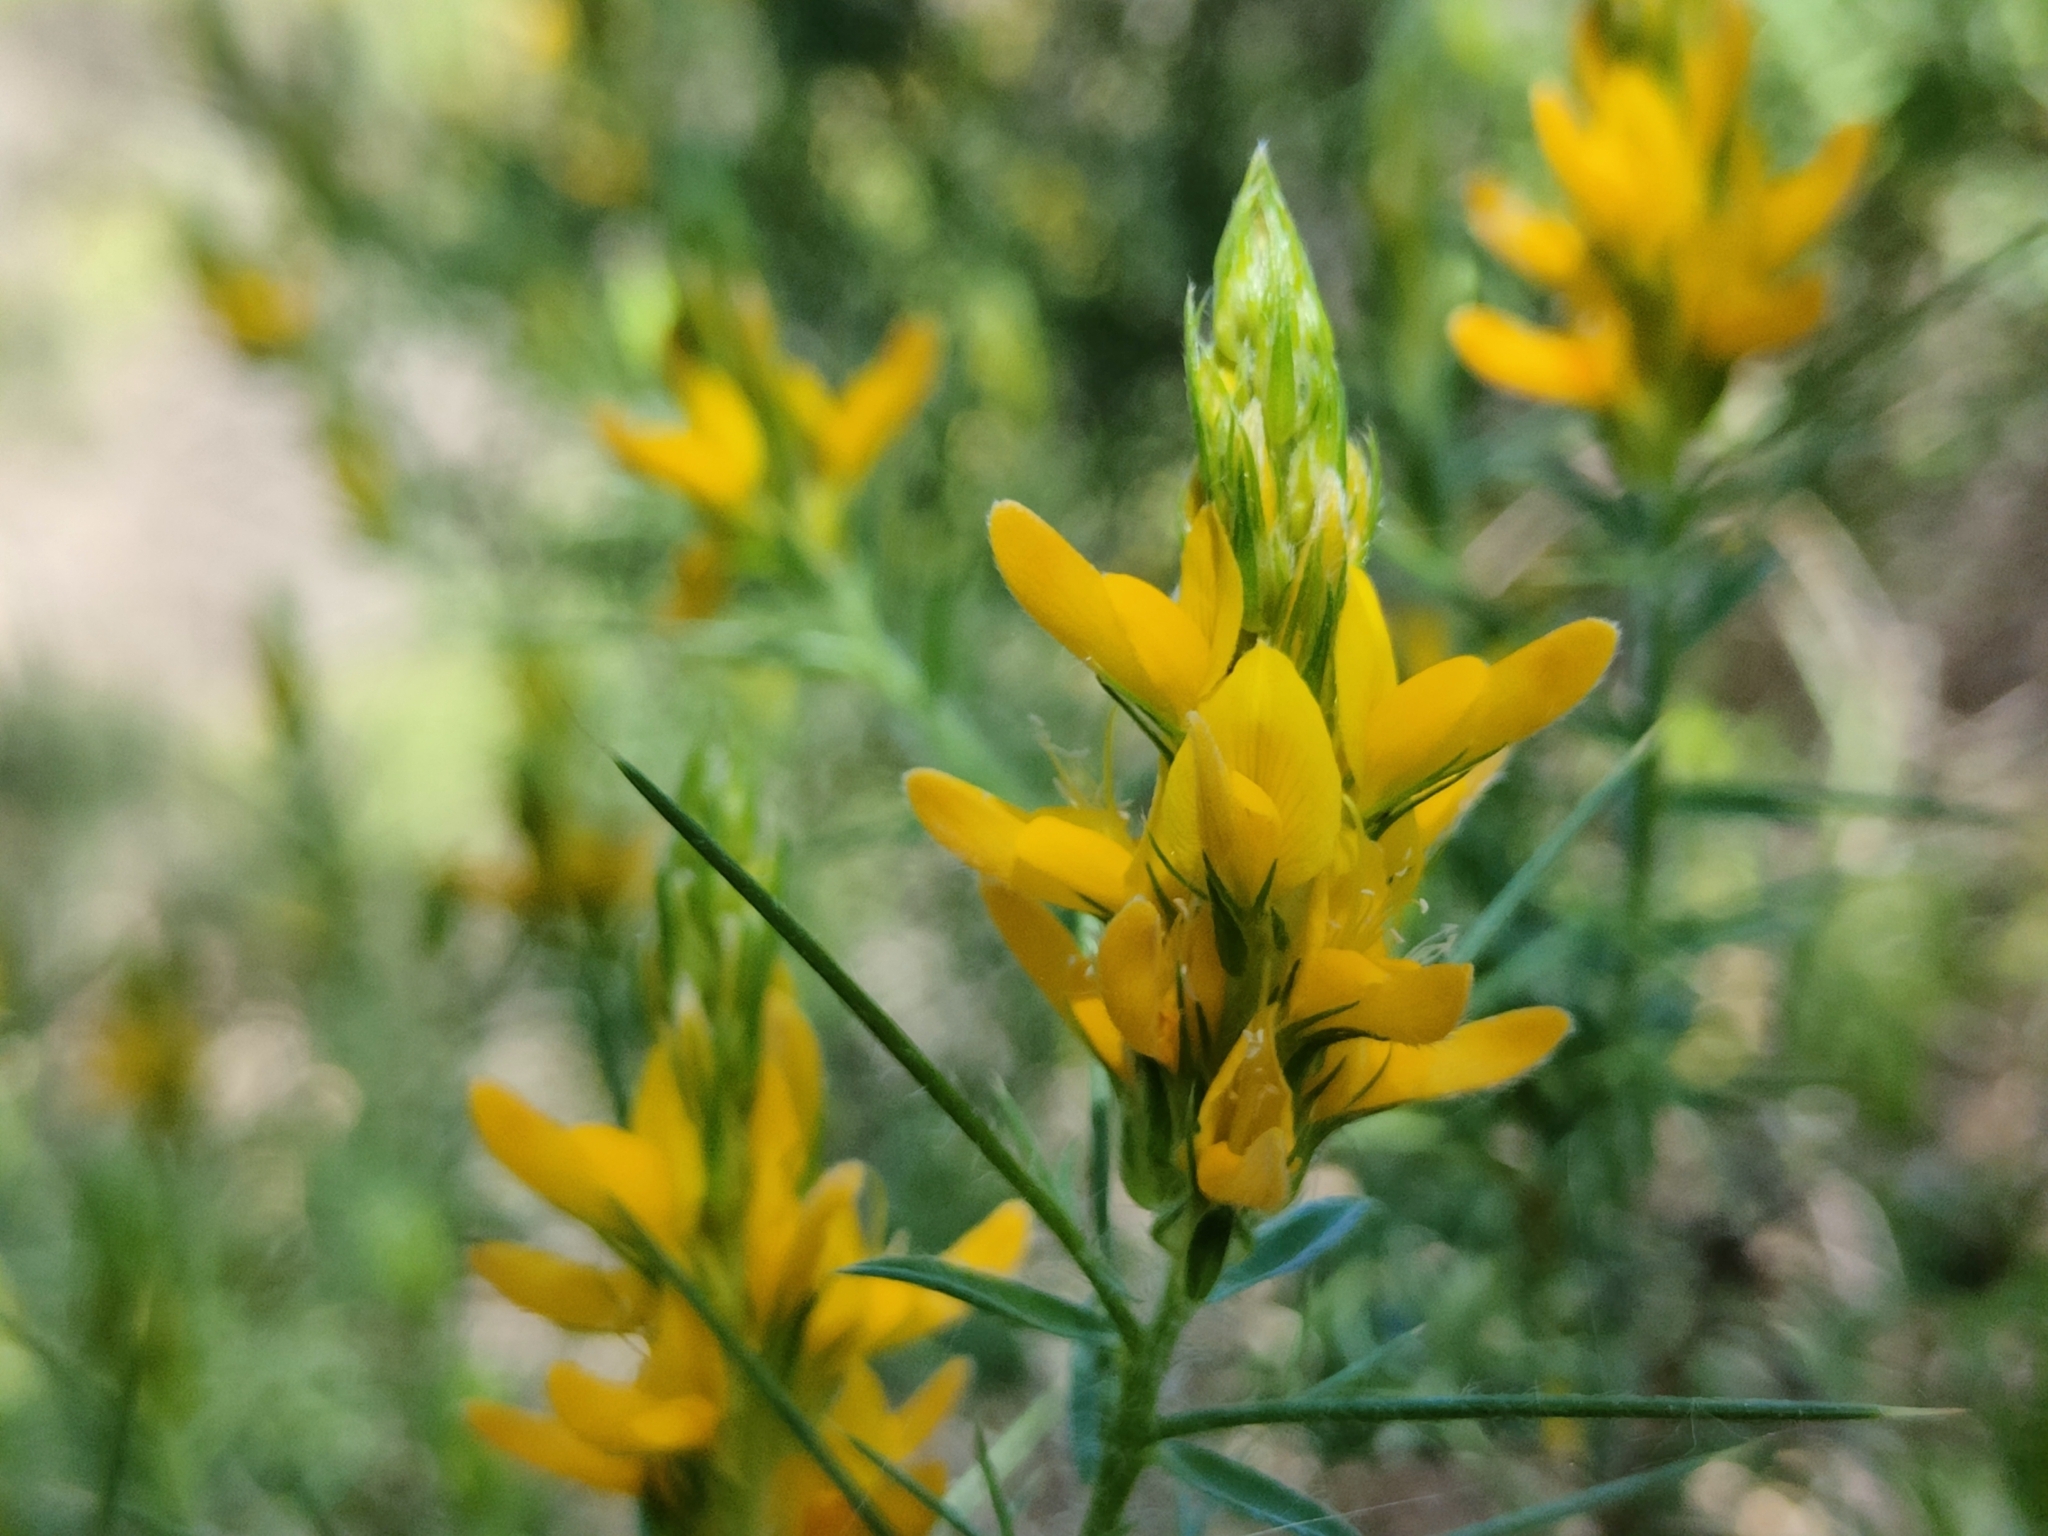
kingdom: Plantae
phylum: Tracheophyta
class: Magnoliopsida
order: Fabales
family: Fabaceae
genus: Genista
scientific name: Genista hirsuta
